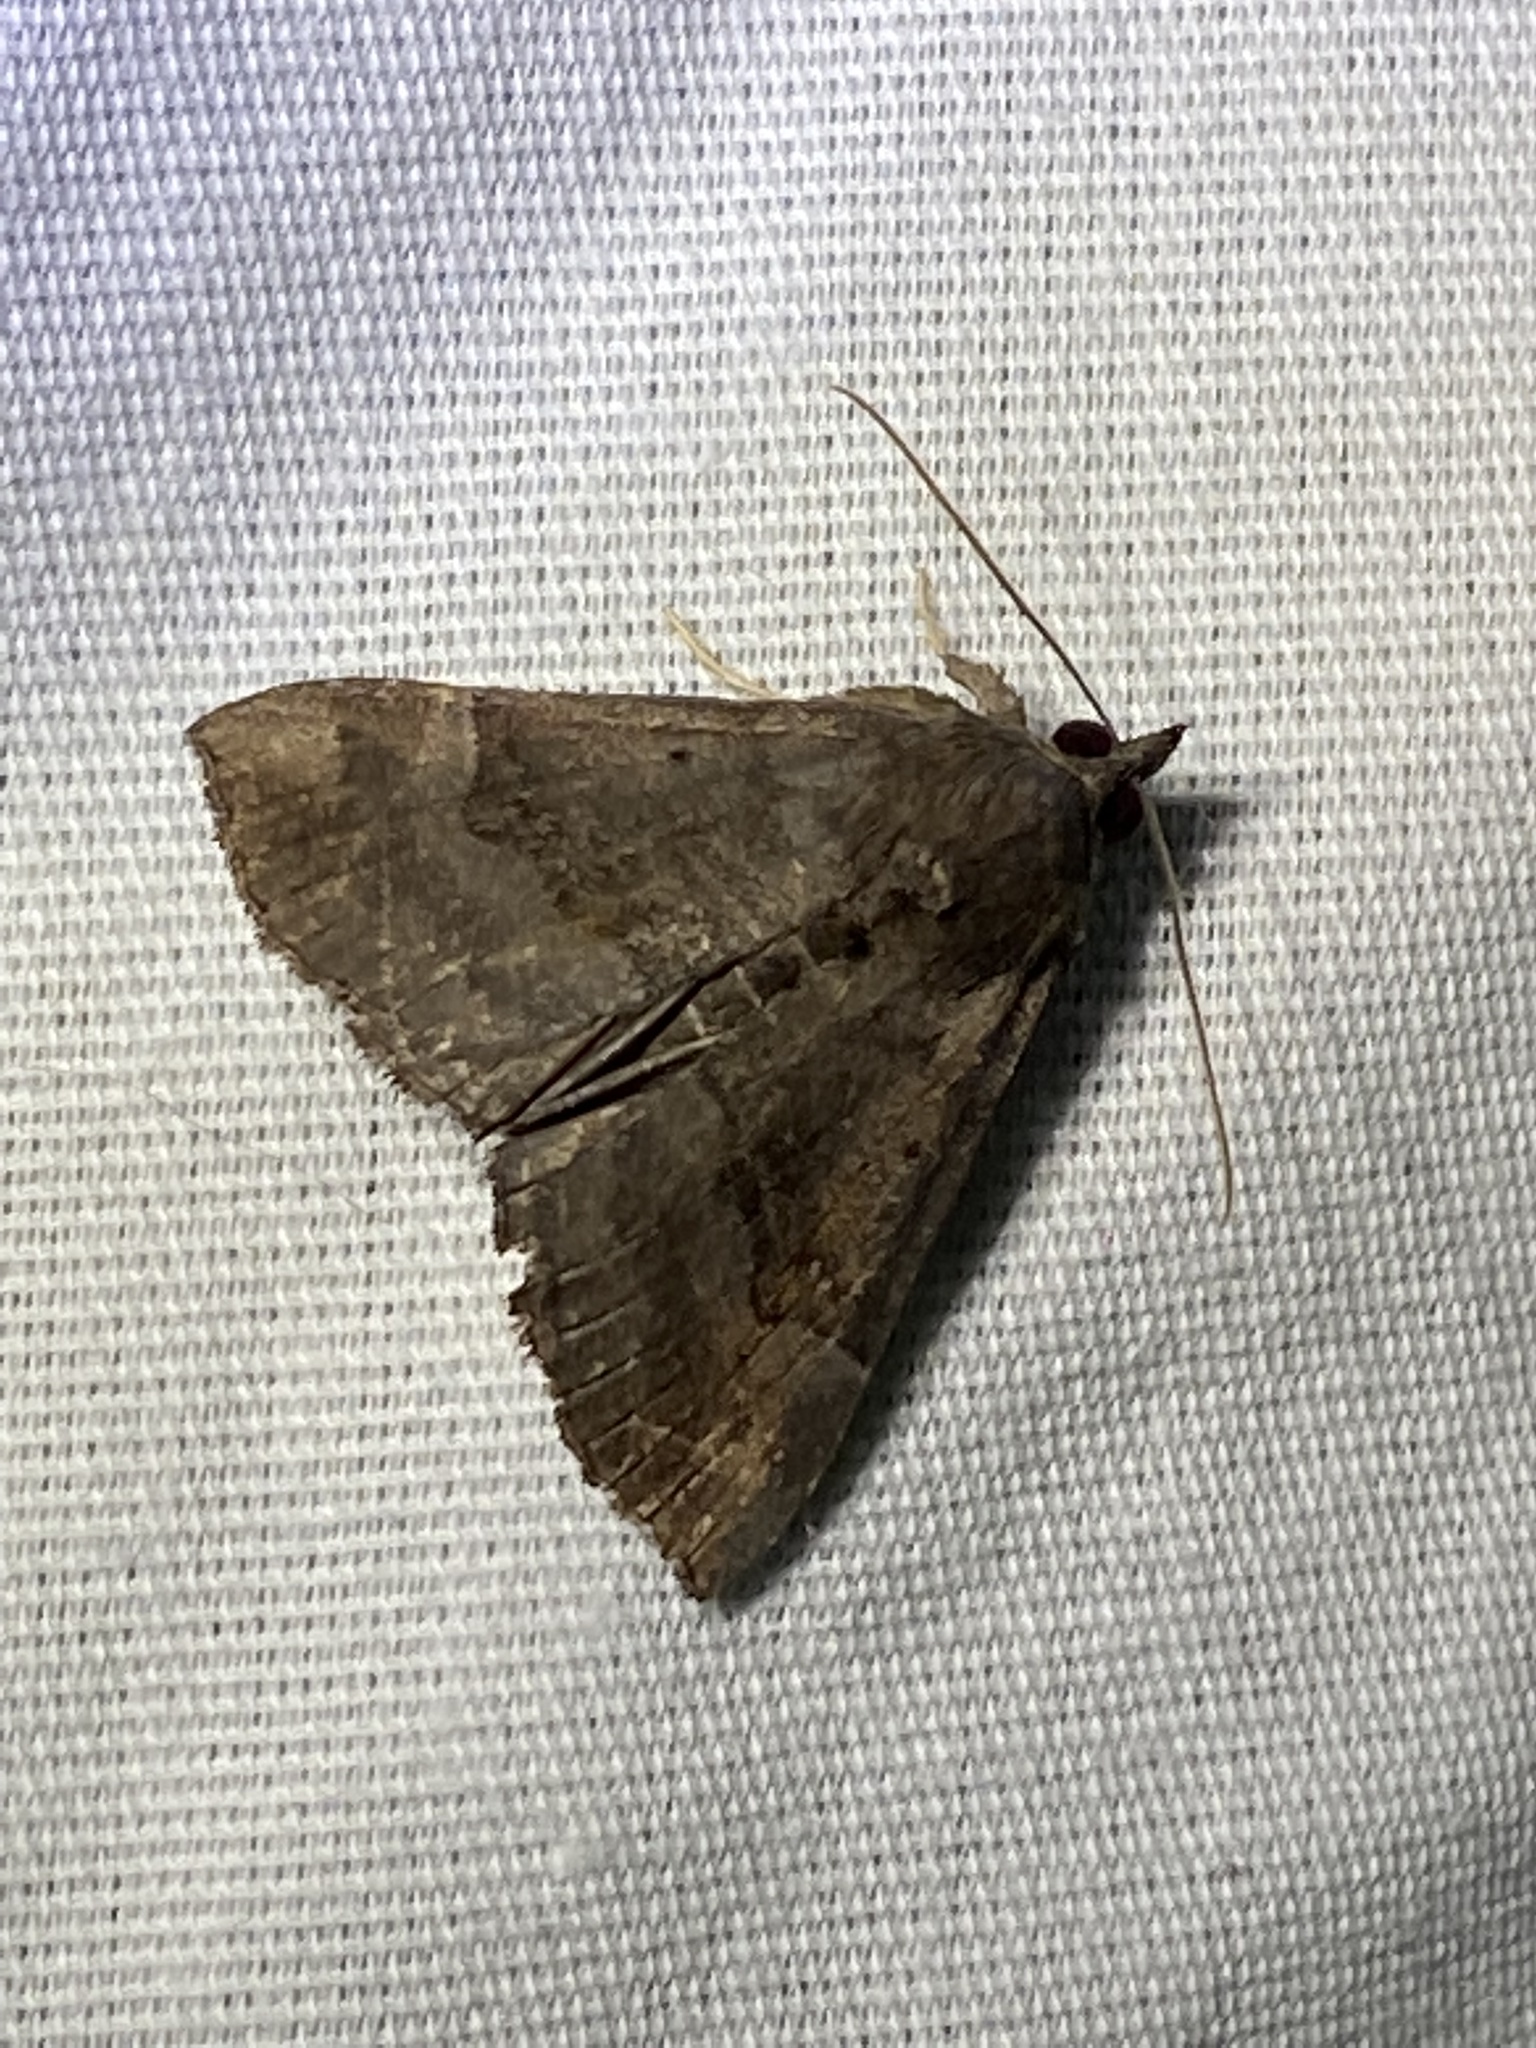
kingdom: Animalia
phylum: Arthropoda
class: Insecta
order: Lepidoptera
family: Erebidae
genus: Hypena
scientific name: Hypena madefactalis
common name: Gray-edged snout
